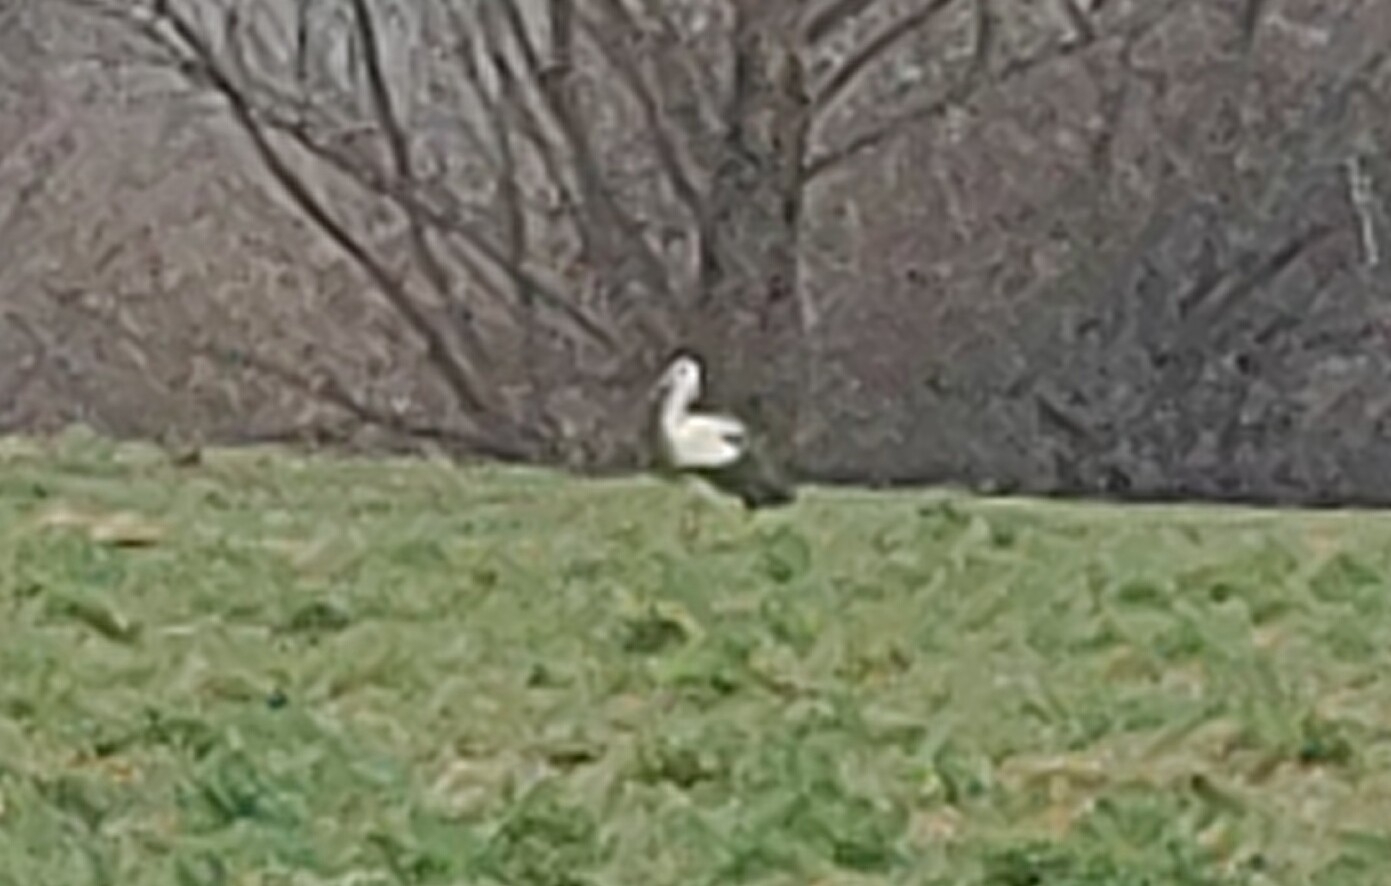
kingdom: Animalia
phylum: Chordata
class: Aves
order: Ciconiiformes
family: Ciconiidae
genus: Ciconia
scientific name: Ciconia ciconia
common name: White stork
